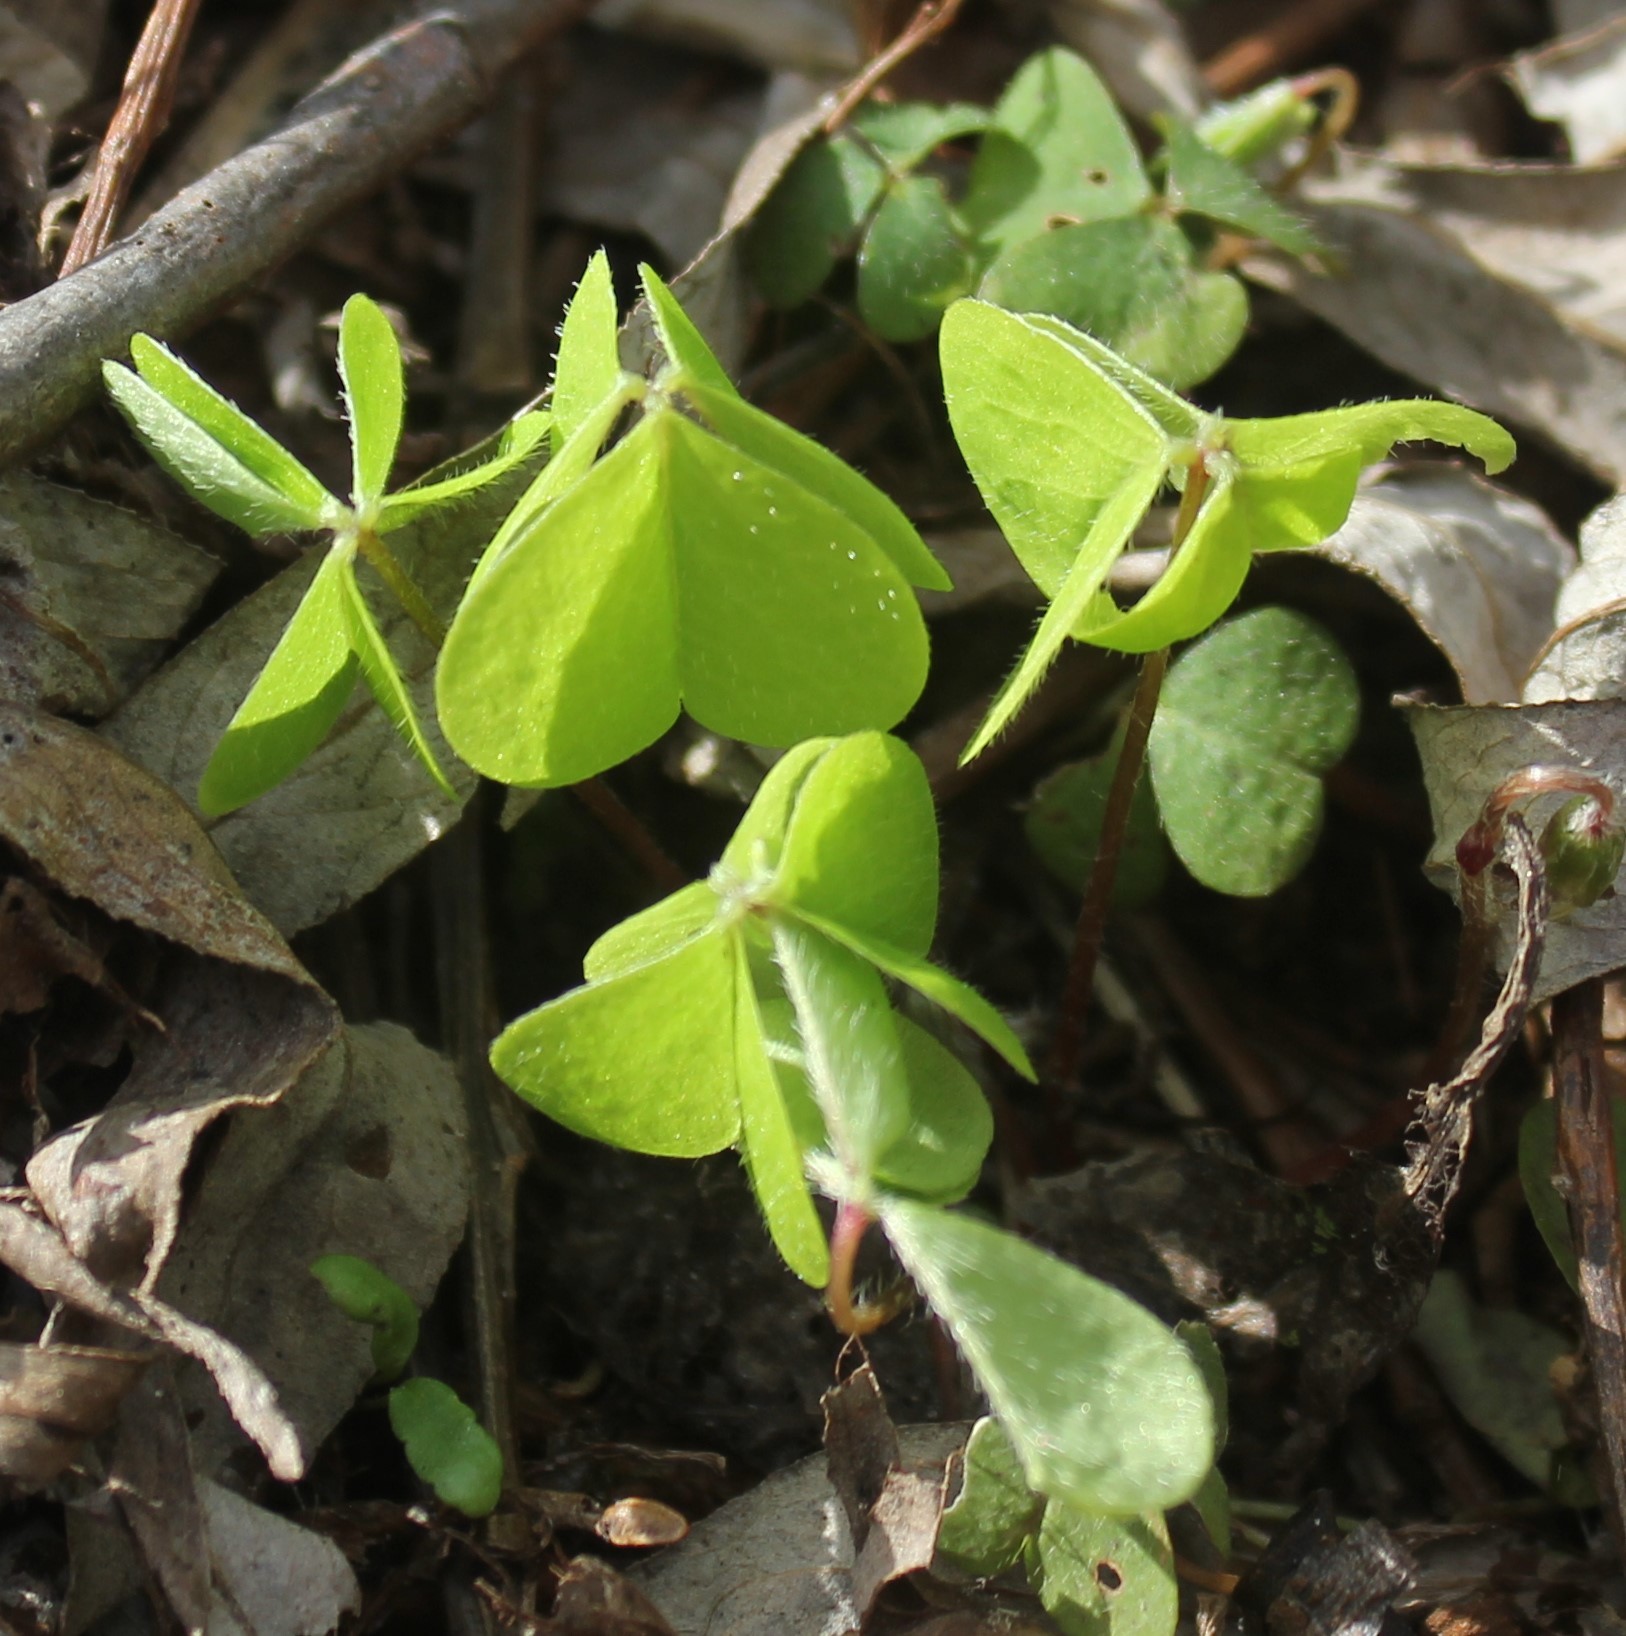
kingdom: Plantae
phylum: Tracheophyta
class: Magnoliopsida
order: Oxalidales
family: Oxalidaceae
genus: Oxalis
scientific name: Oxalis acetosella
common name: Wood-sorrel
